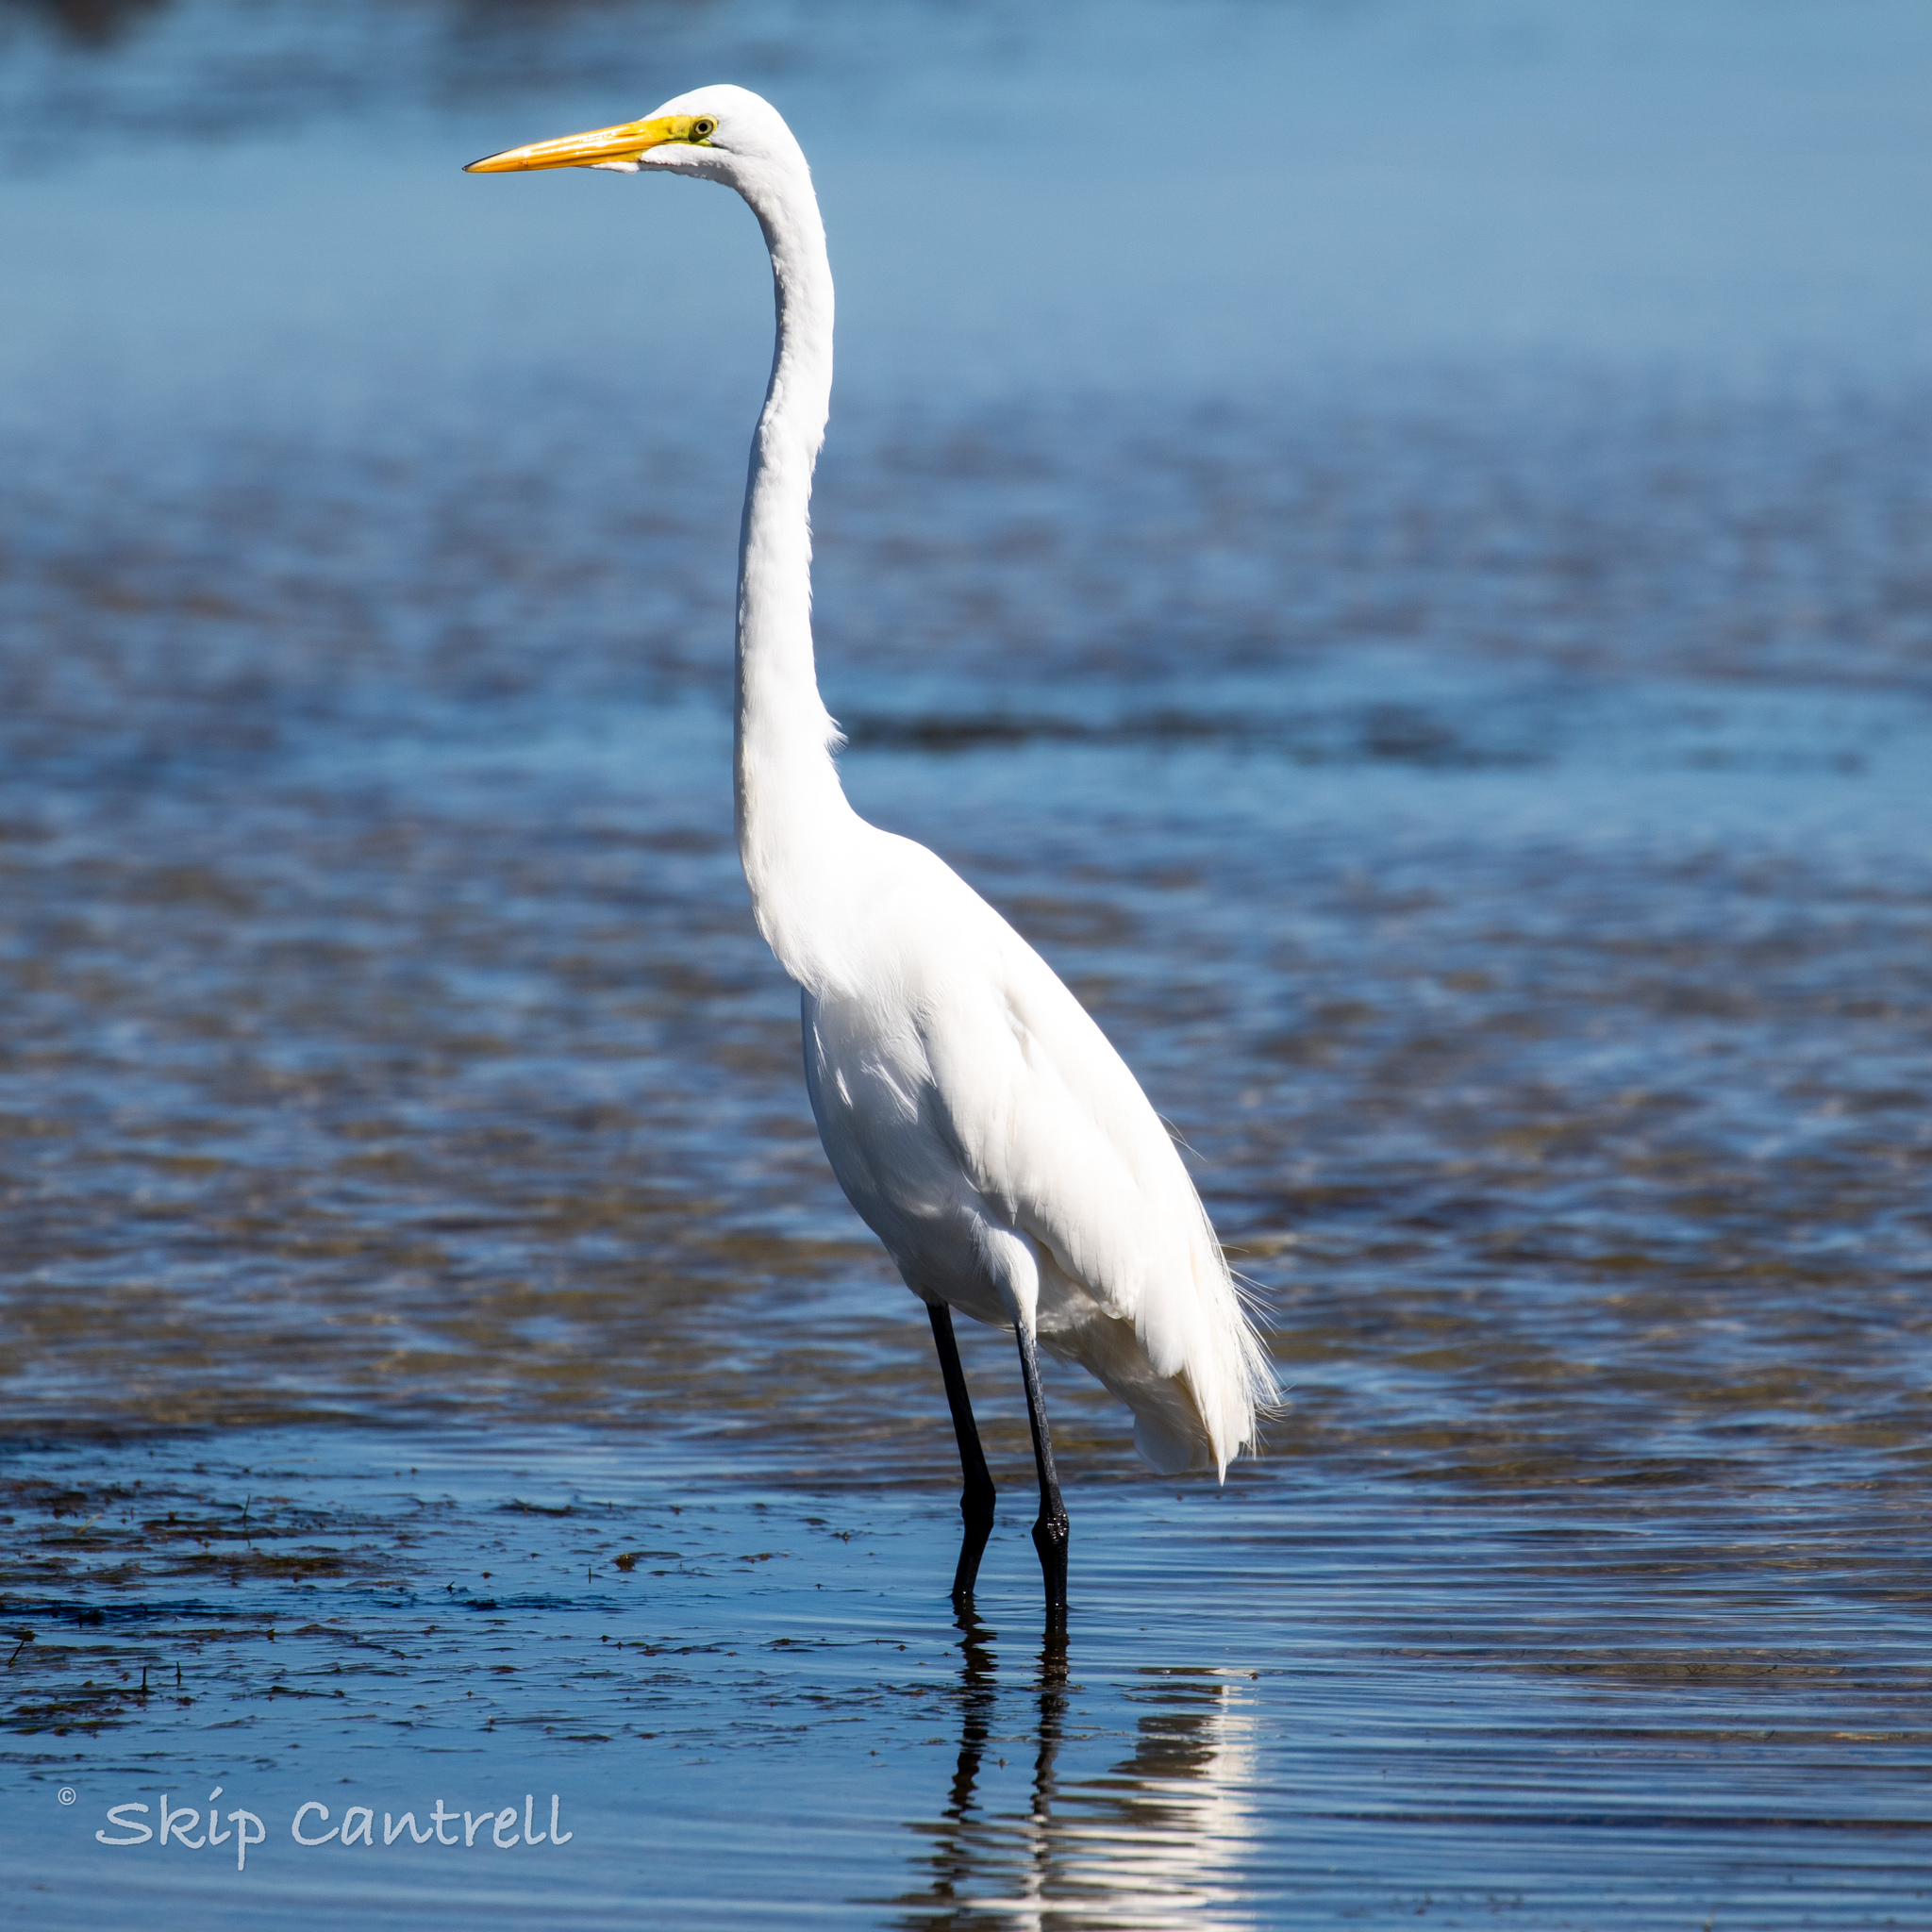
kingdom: Animalia
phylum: Chordata
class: Aves
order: Pelecaniformes
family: Ardeidae
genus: Ardea
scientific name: Ardea alba
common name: Great egret
